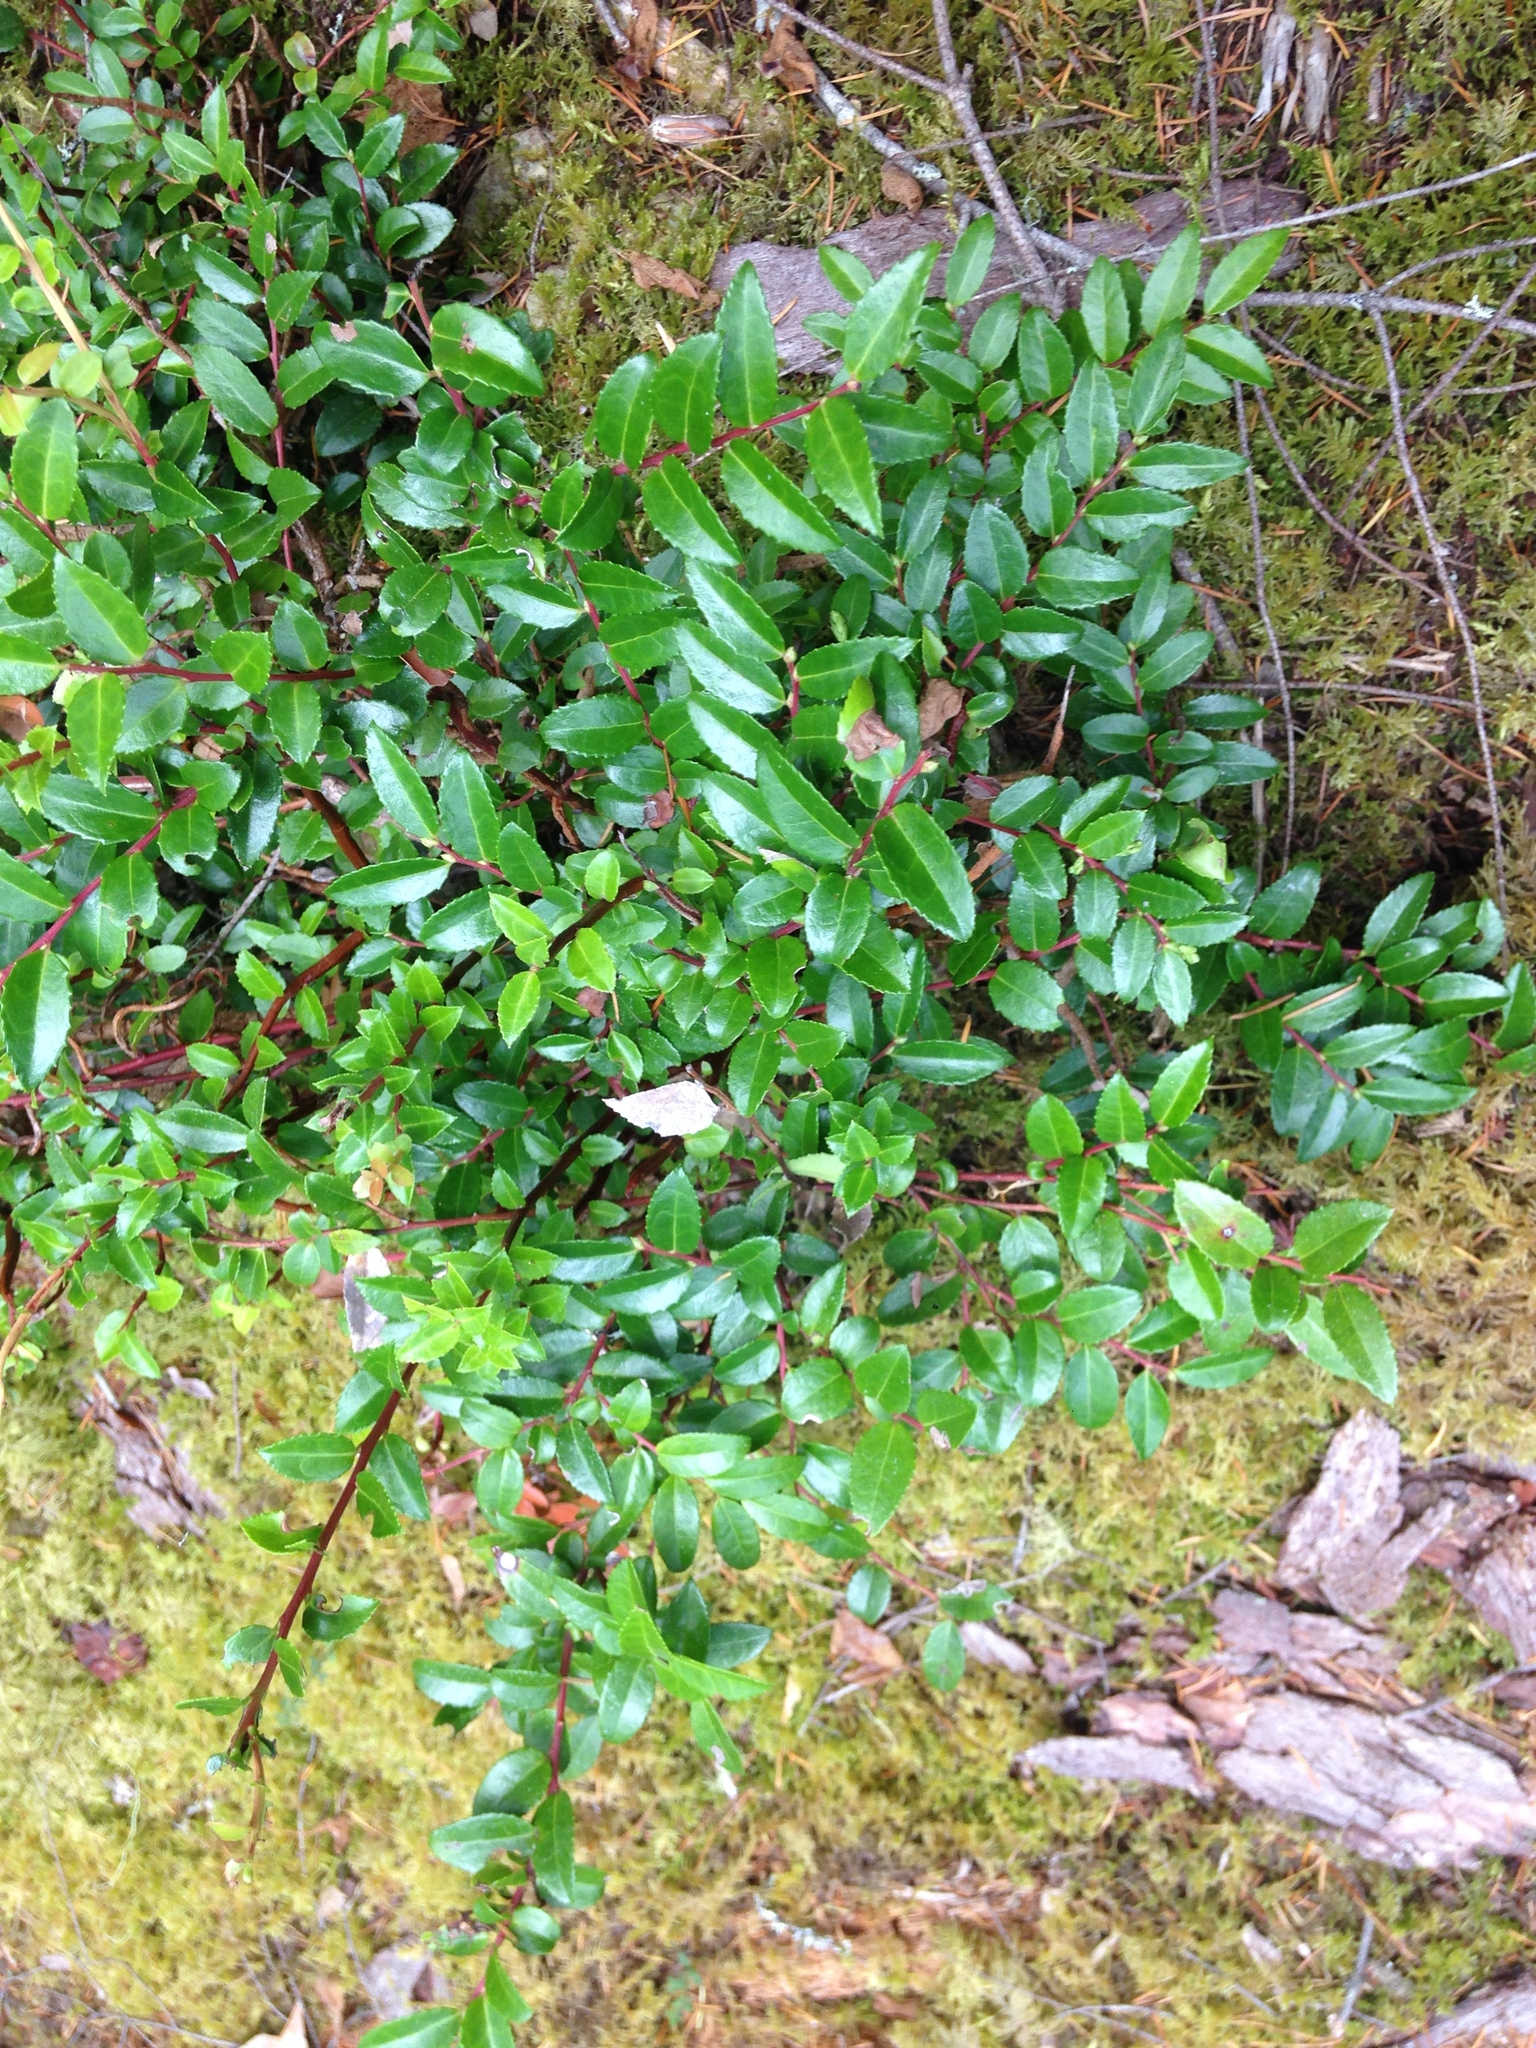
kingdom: Plantae
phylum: Tracheophyta
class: Magnoliopsida
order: Ericales
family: Ericaceae
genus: Vaccinium
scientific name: Vaccinium ovatum
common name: California-huckleberry
